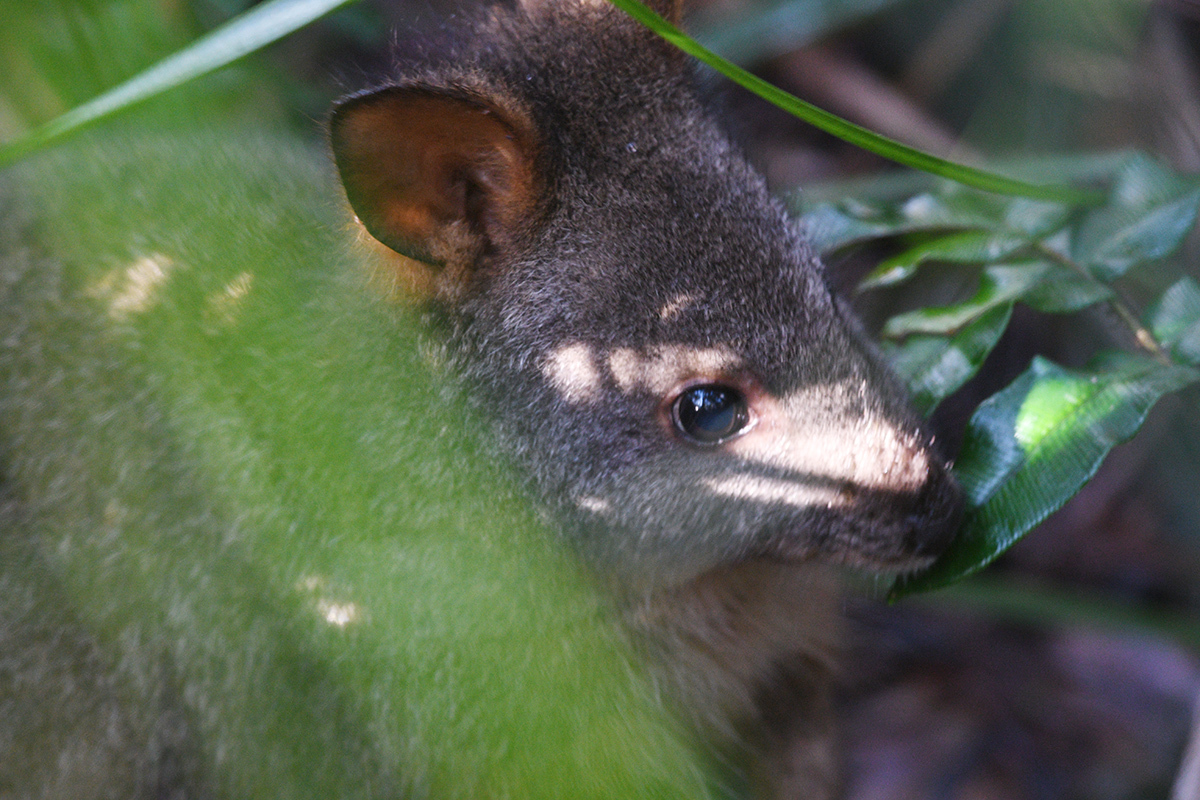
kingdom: Animalia
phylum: Chordata
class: Mammalia
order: Diprotodontia
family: Macropodidae
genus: Thylogale
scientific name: Thylogale billardierii
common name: Tasmanian pademelon
